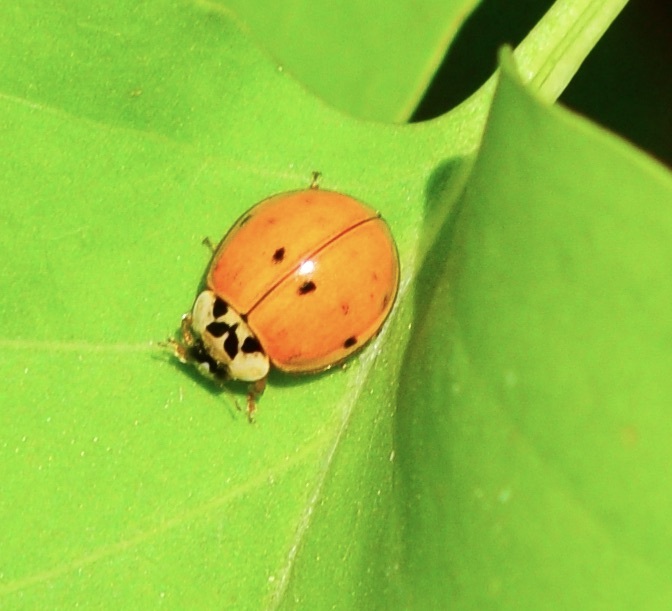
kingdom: Animalia
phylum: Arthropoda
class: Insecta
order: Coleoptera
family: Coccinellidae
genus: Harmonia
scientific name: Harmonia axyridis
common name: Harlequin ladybird
